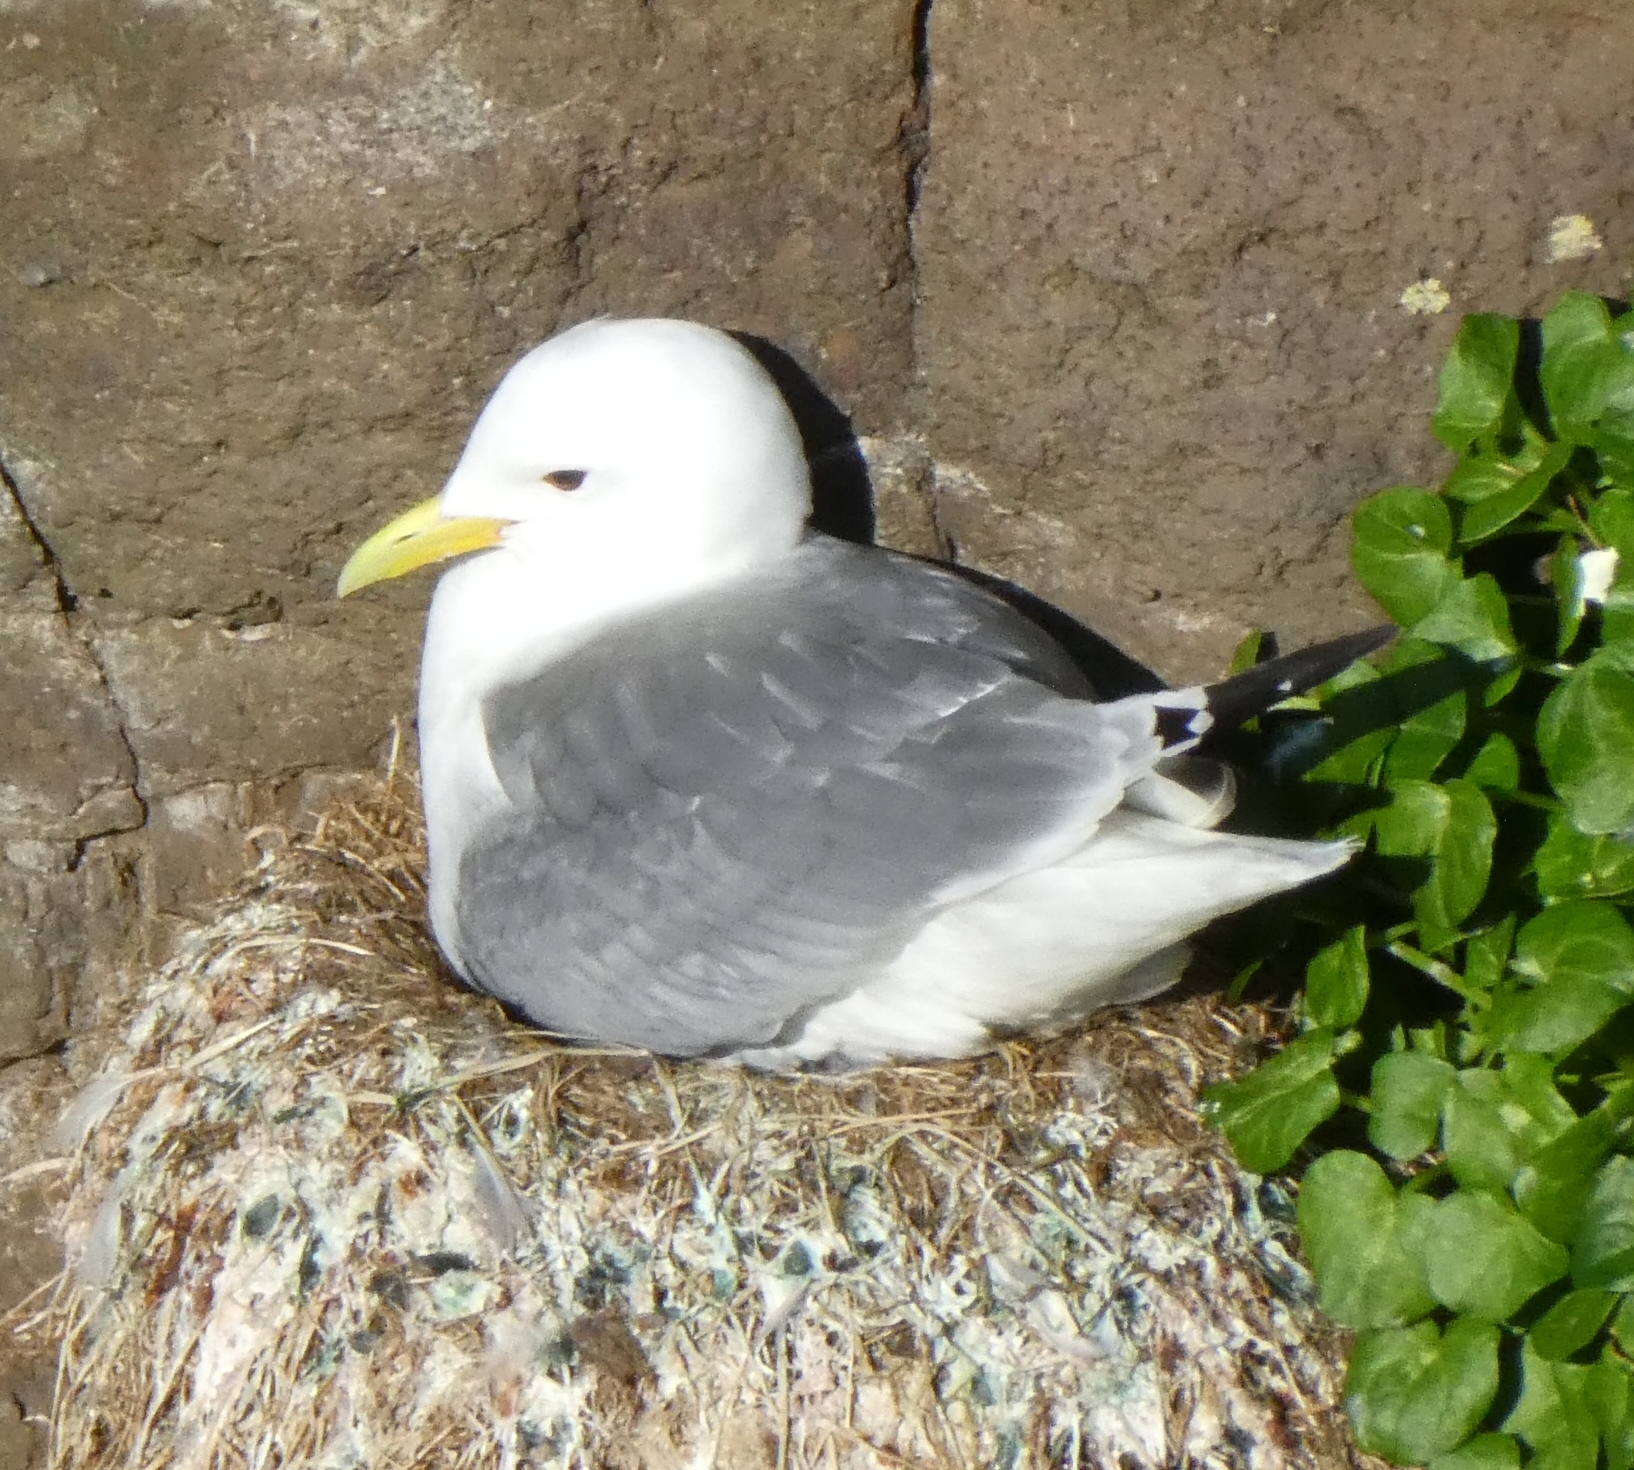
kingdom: Animalia
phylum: Chordata
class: Aves
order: Charadriiformes
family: Laridae
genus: Rissa
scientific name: Rissa tridactyla
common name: Black-legged kittiwake
